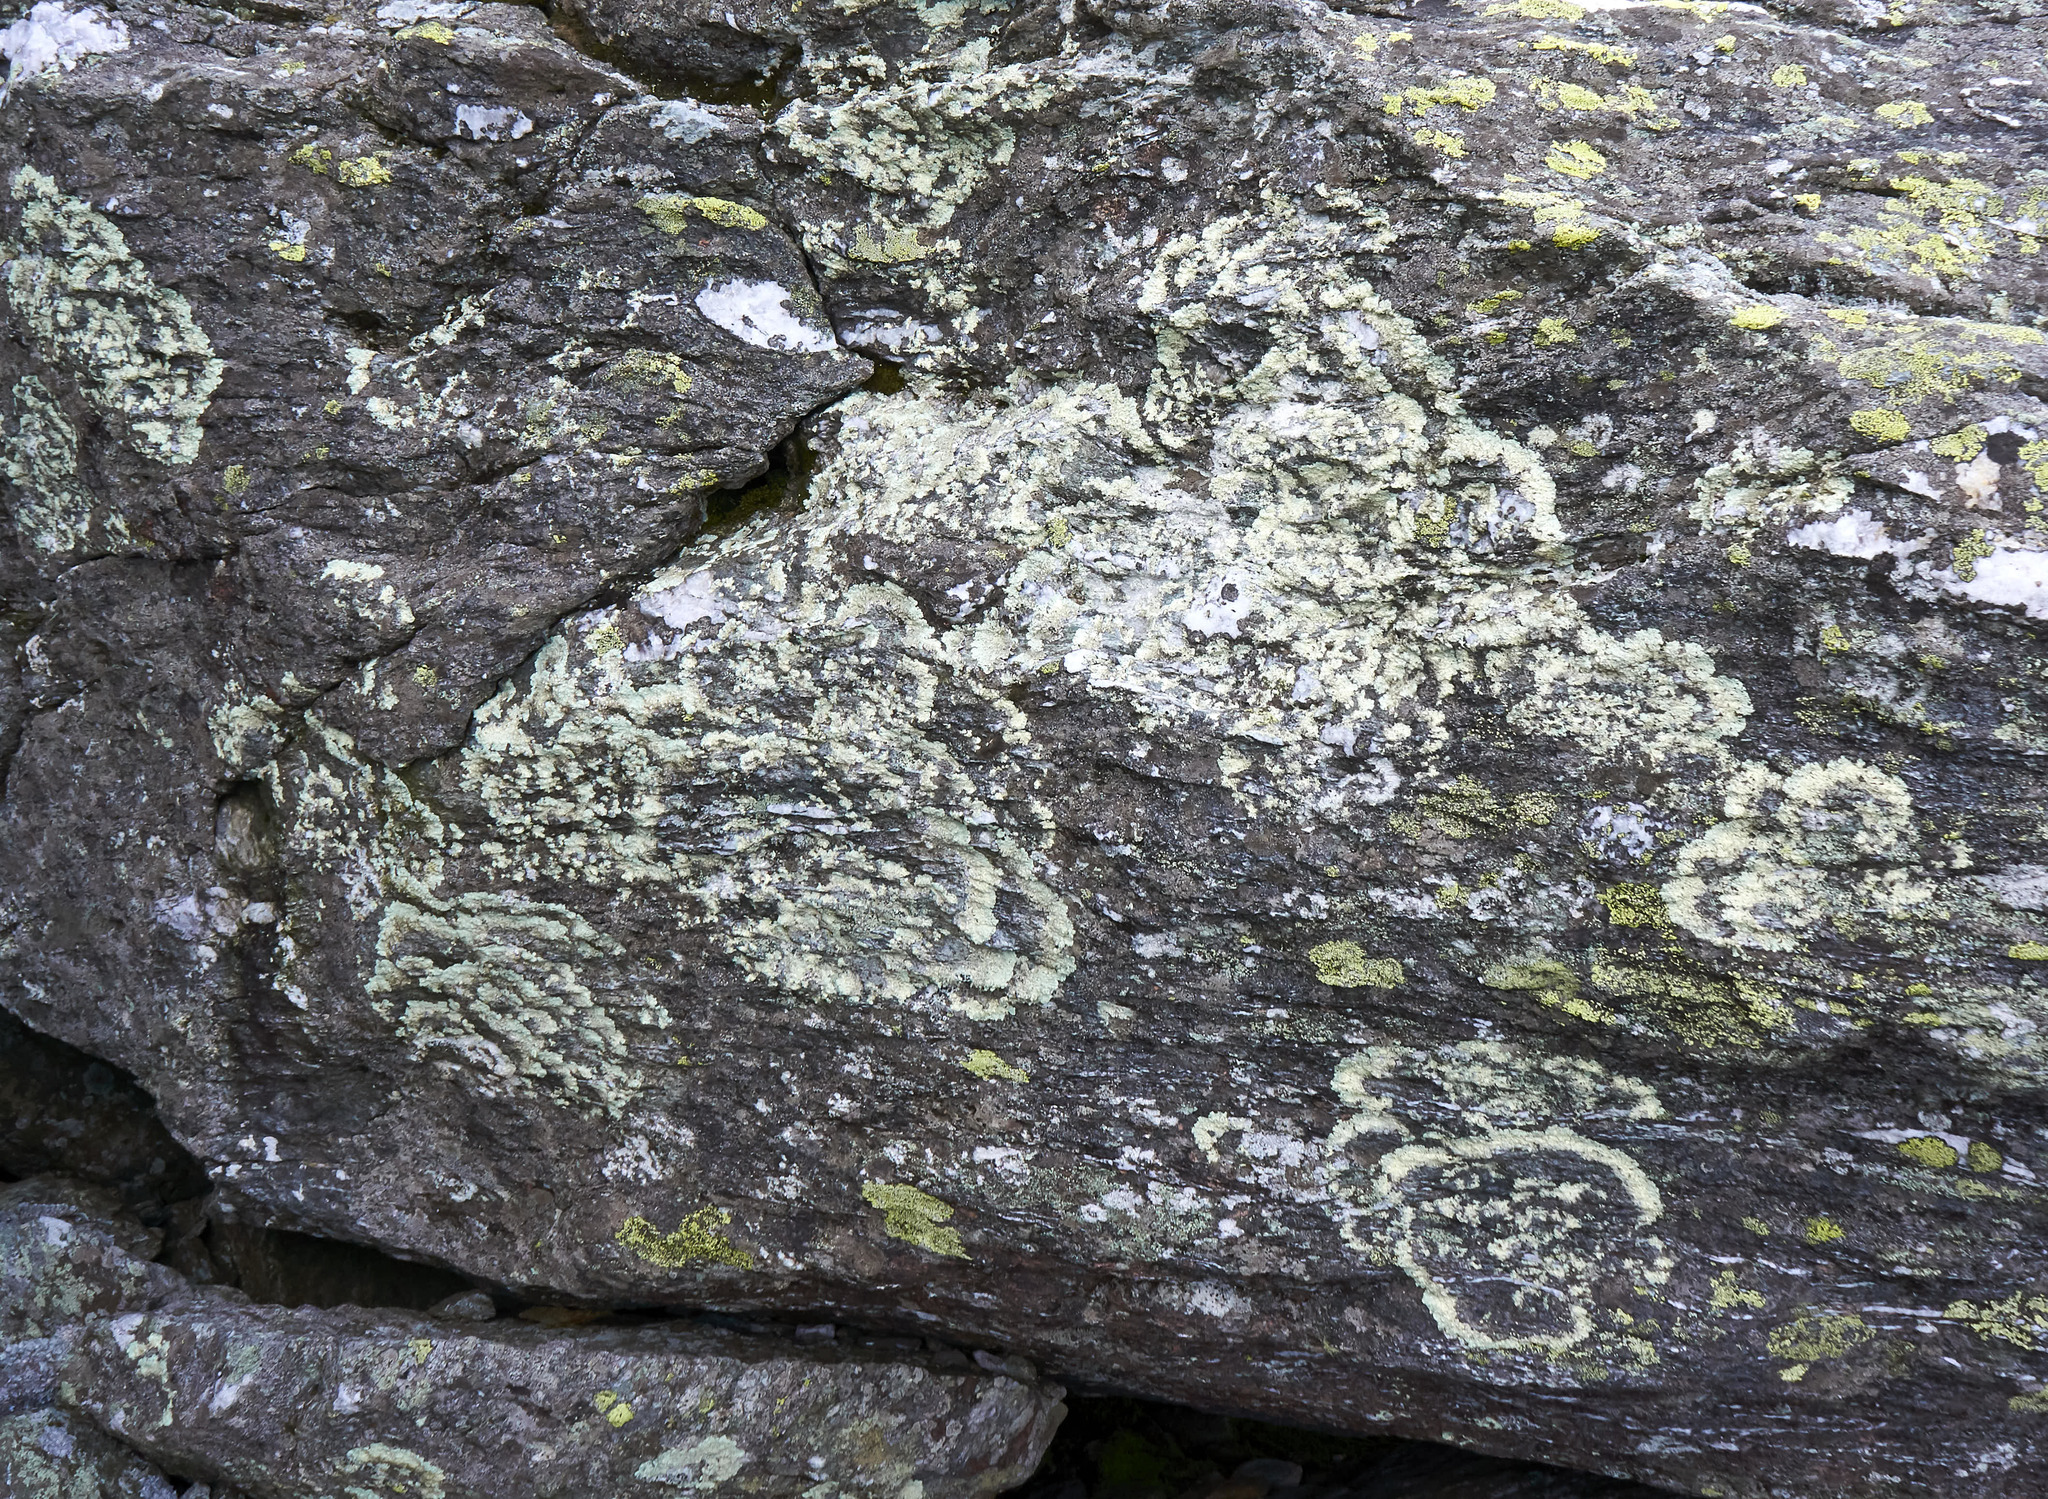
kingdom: Fungi
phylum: Ascomycota
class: Lecanoromycetes
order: Lecanorales
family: Parmeliaceae
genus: Arctoparmelia
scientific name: Arctoparmelia centrifuga
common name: Concentric ring lichen
